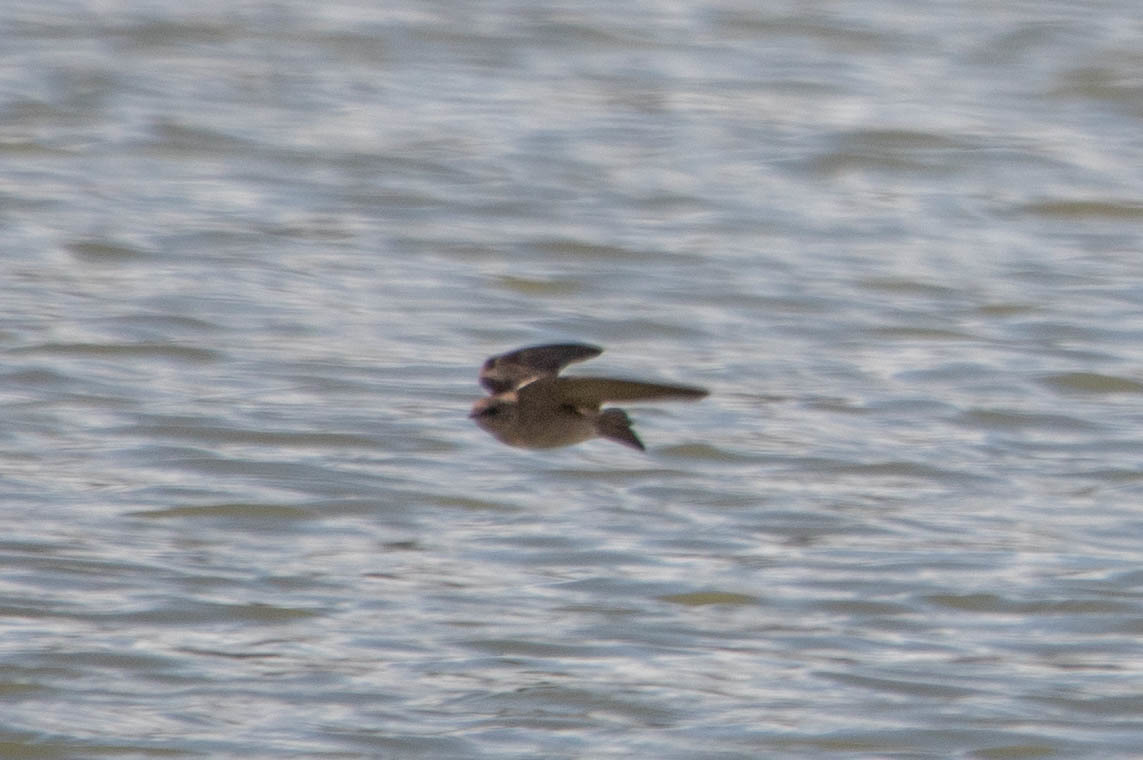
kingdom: Animalia
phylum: Chordata
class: Aves
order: Passeriformes
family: Hirundinidae
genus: Stelgidopteryx
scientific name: Stelgidopteryx serripennis
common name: Northern rough-winged swallow
